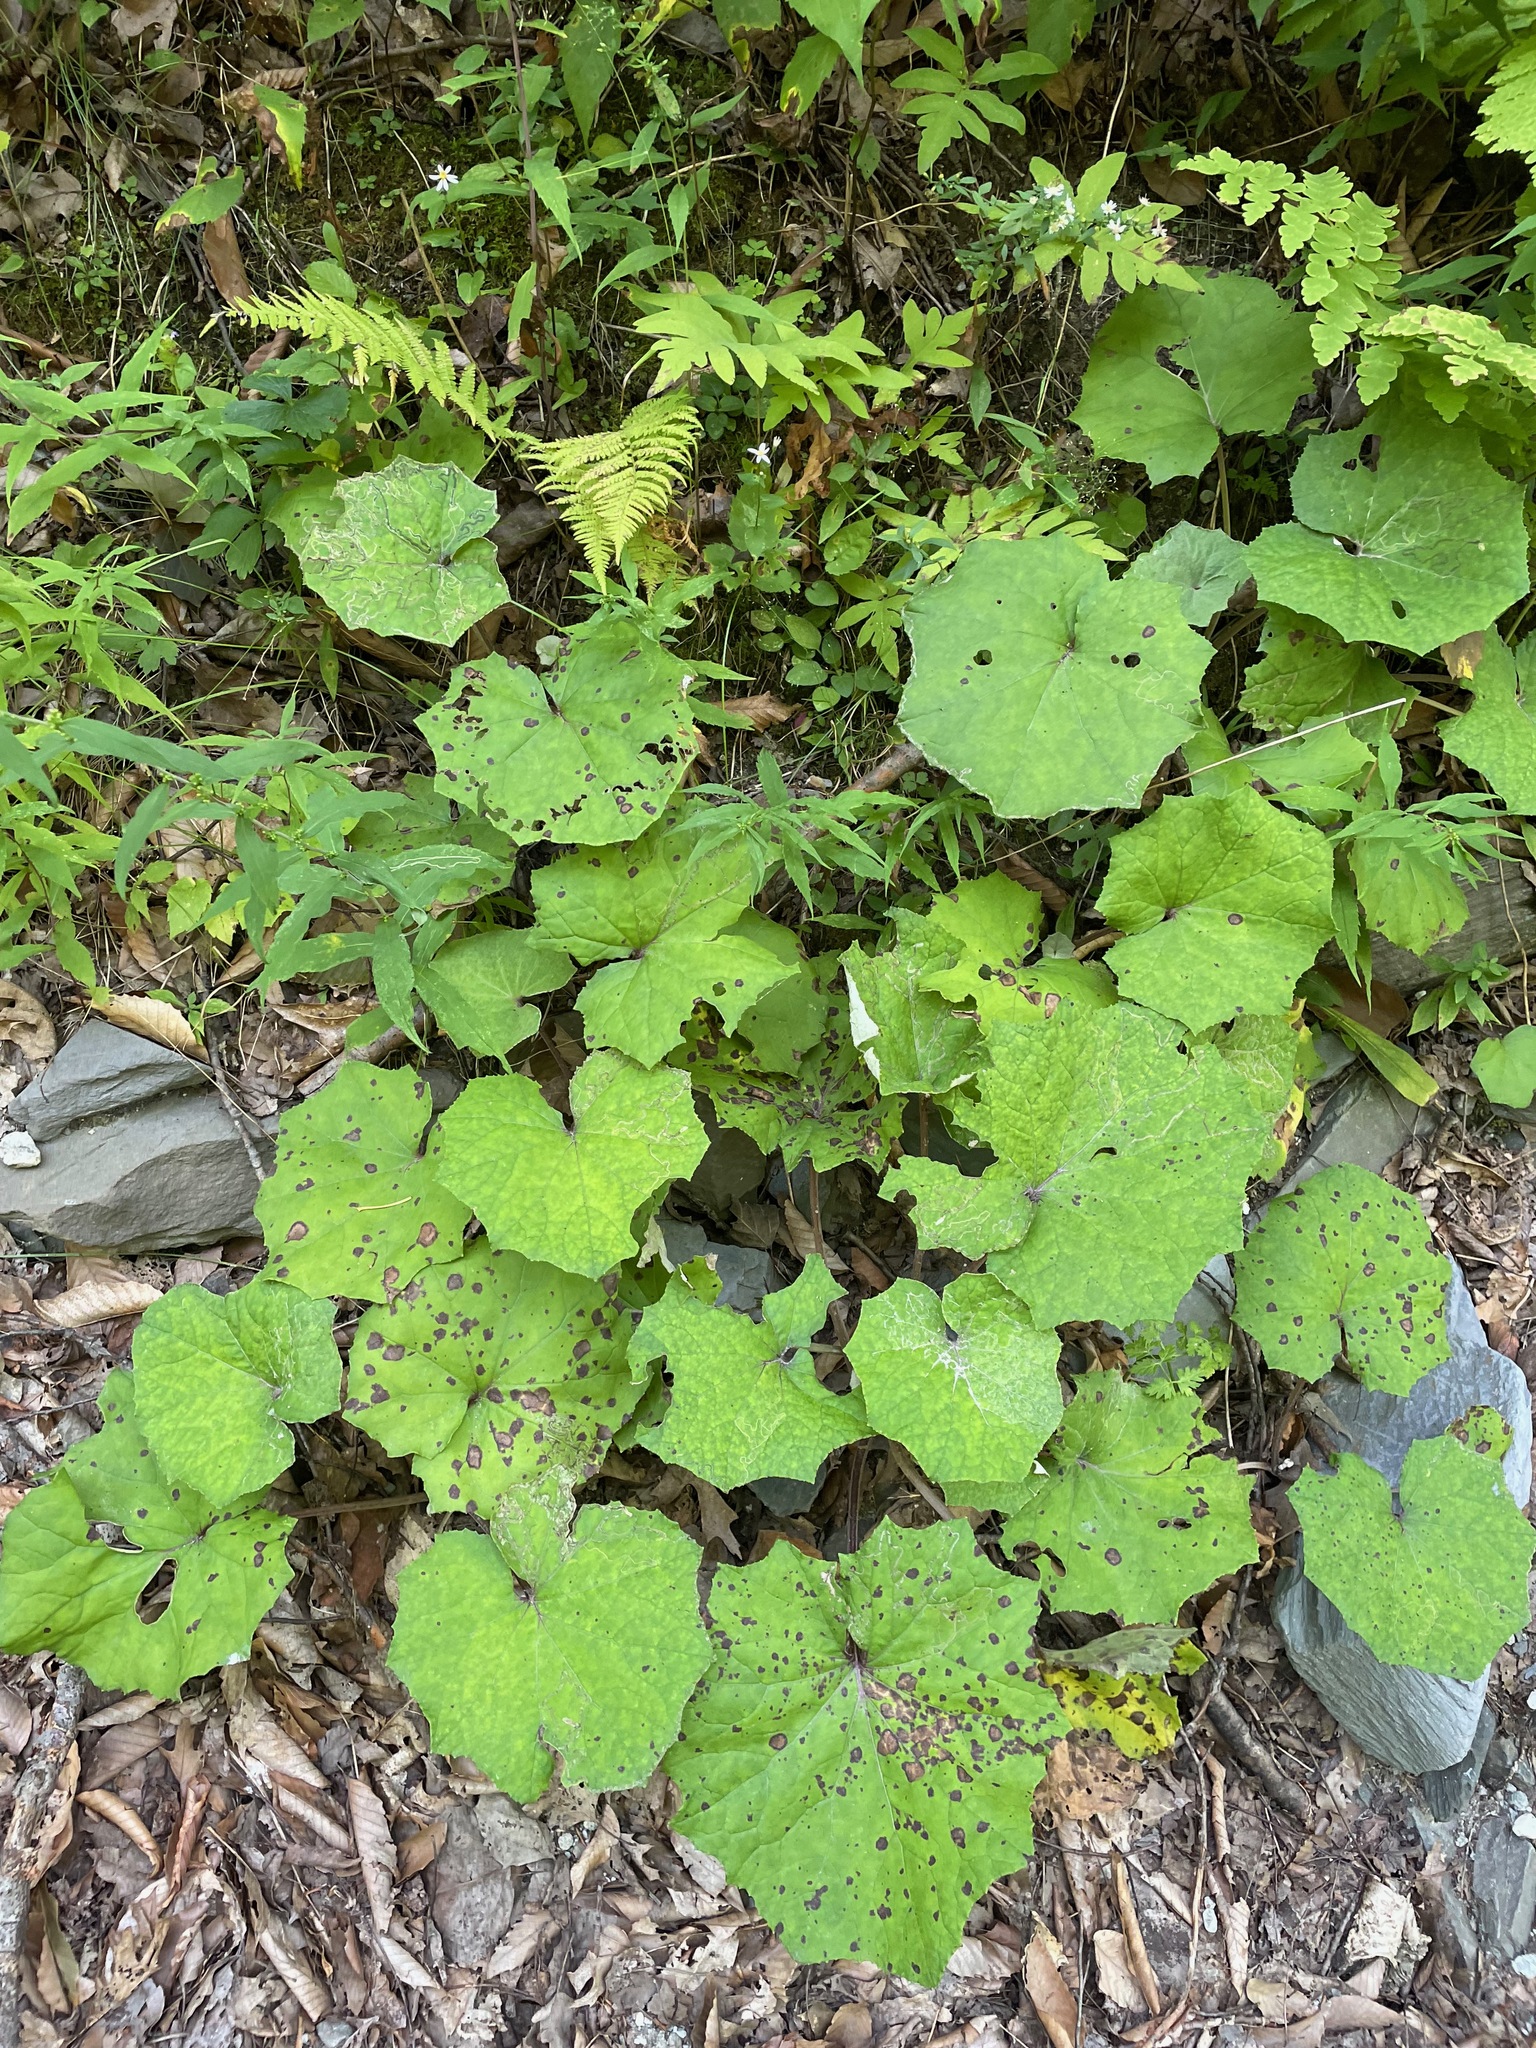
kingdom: Plantae
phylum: Tracheophyta
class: Magnoliopsida
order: Asterales
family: Asteraceae
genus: Tussilago
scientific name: Tussilago farfara
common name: Coltsfoot
